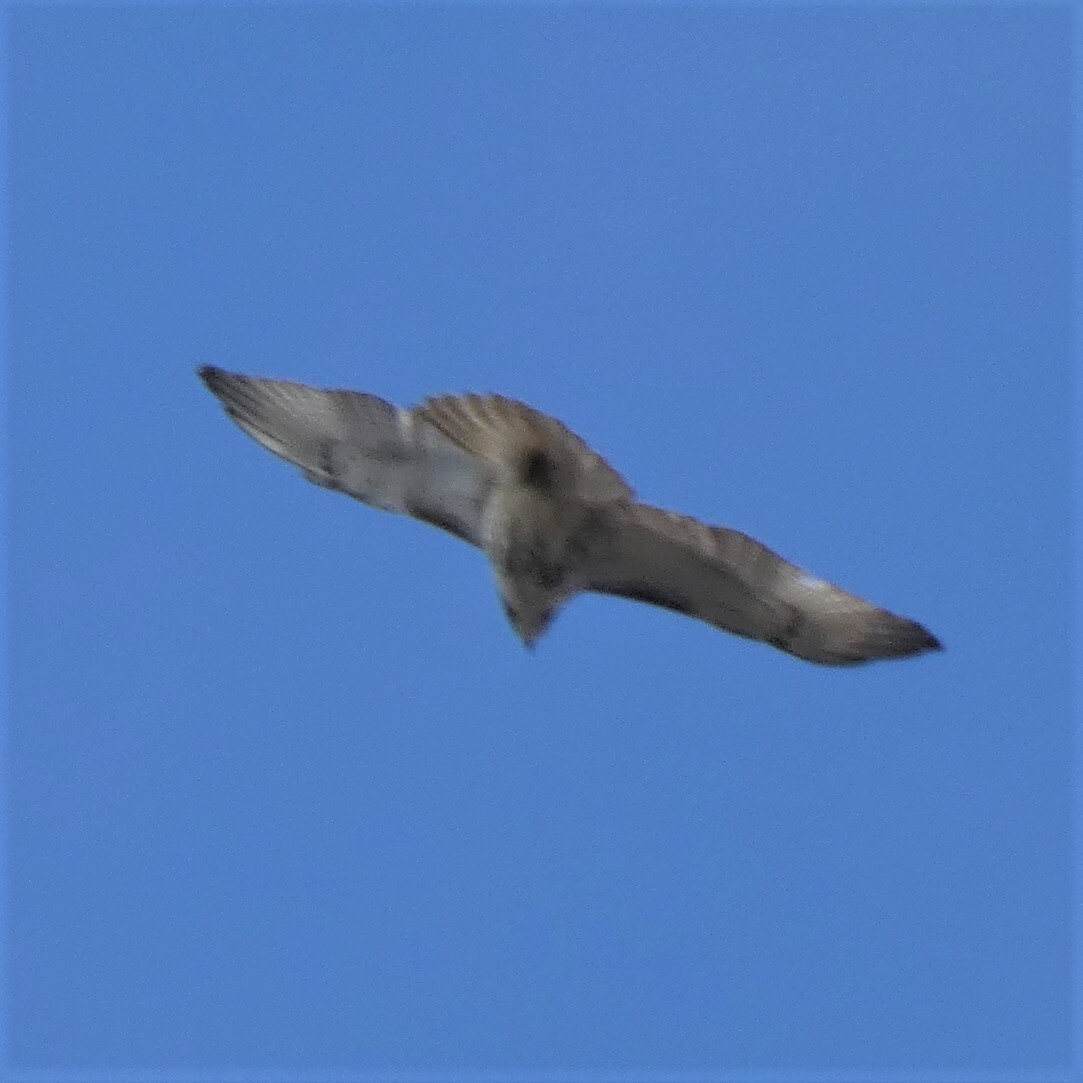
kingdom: Animalia
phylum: Chordata
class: Aves
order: Accipitriformes
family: Accipitridae
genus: Buteo
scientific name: Buteo jamaicensis
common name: Red-tailed hawk
